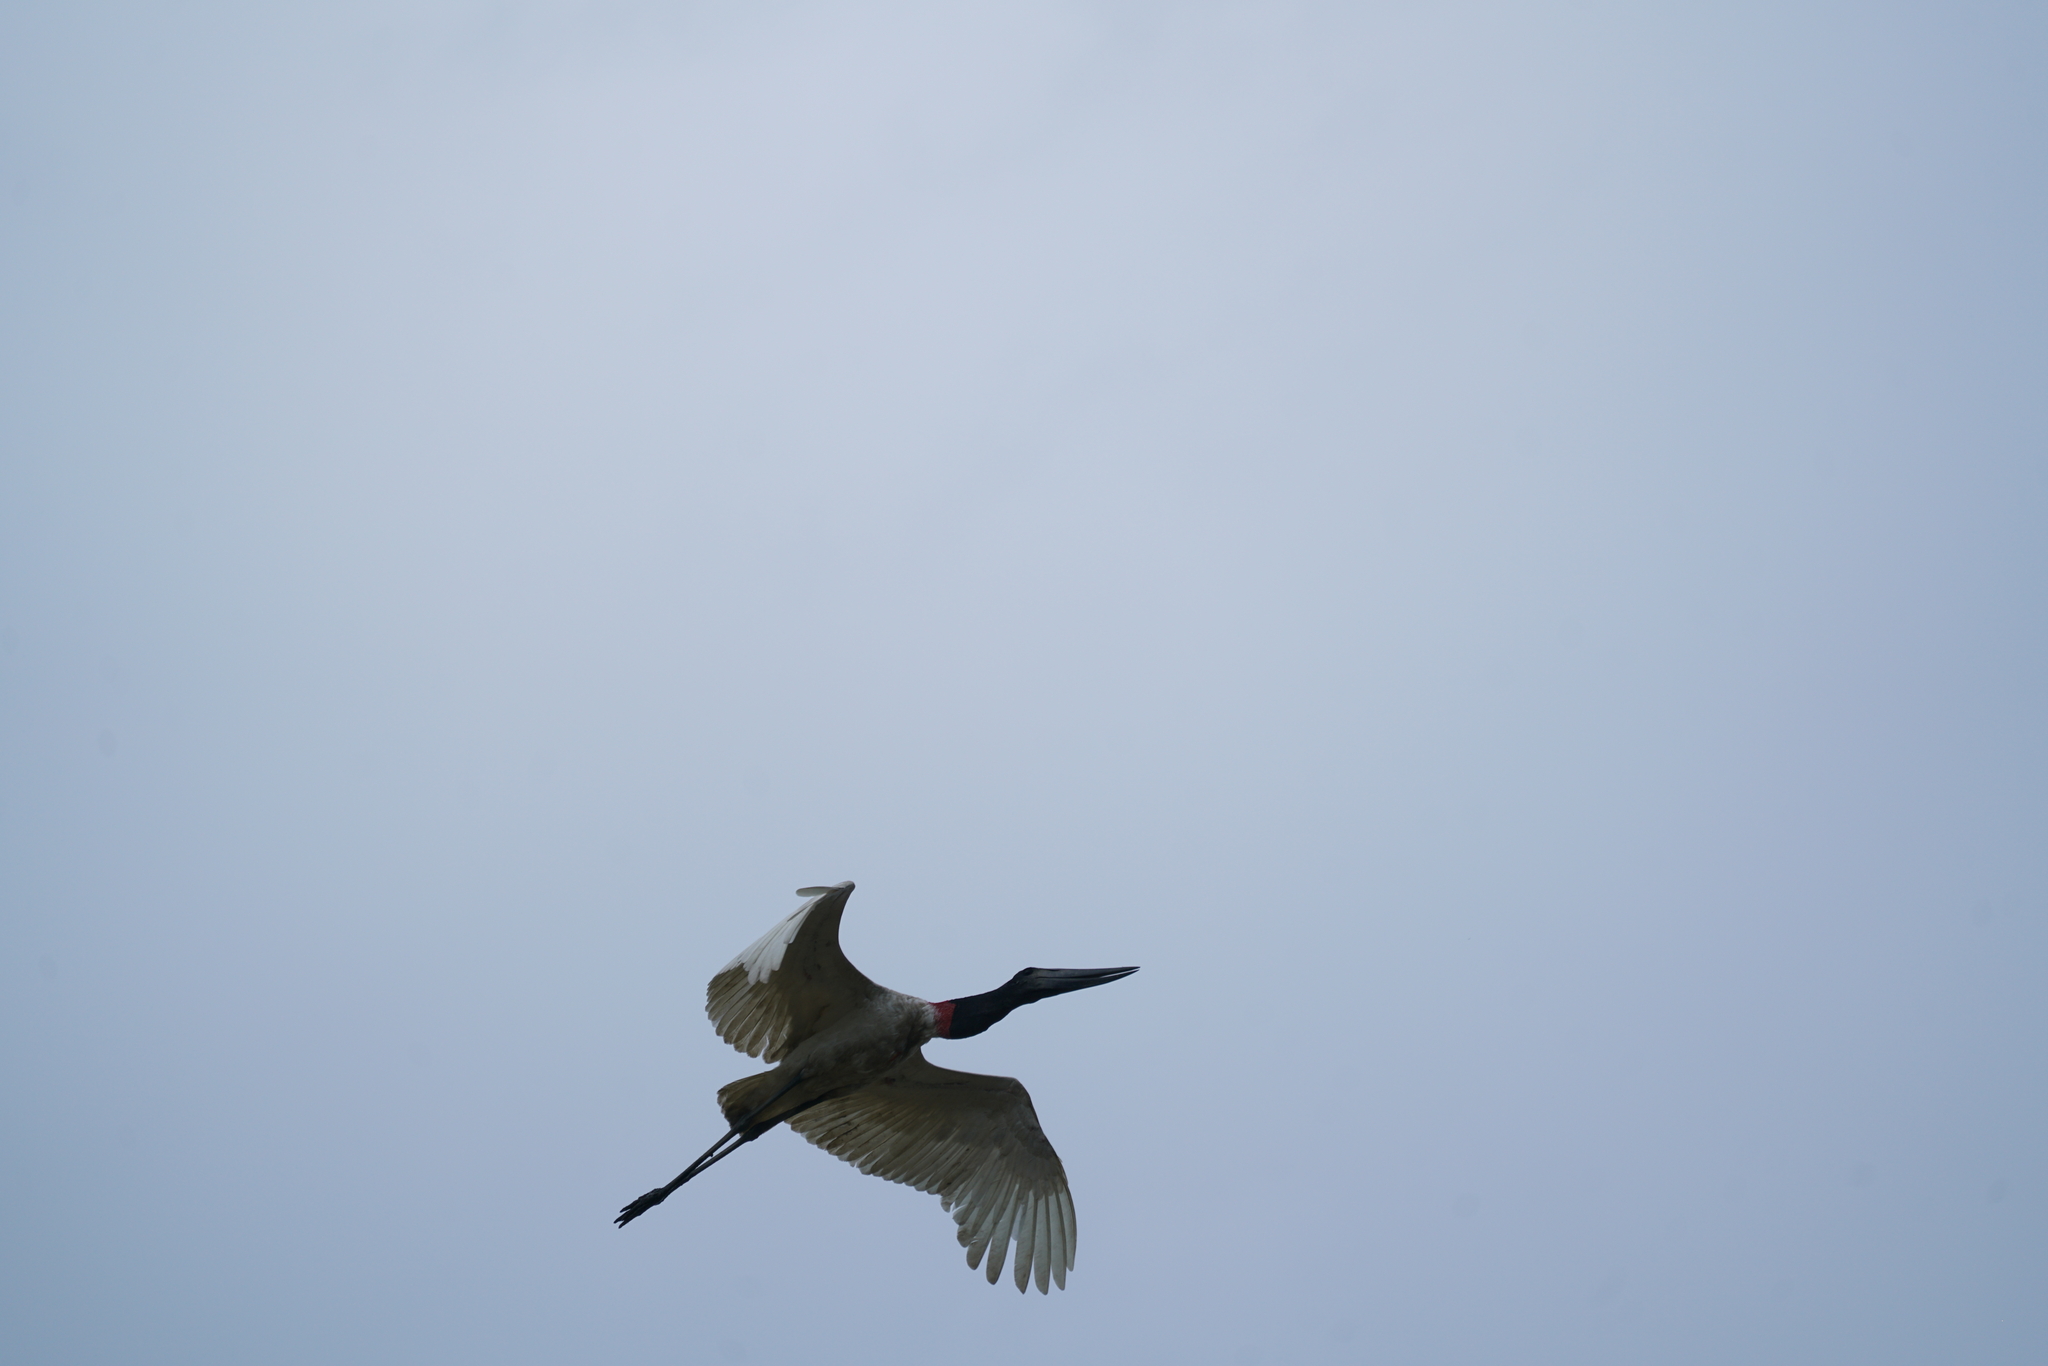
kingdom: Animalia
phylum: Chordata
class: Aves
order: Ciconiiformes
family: Ciconiidae
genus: Jabiru
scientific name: Jabiru mycteria
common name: Jabiru
